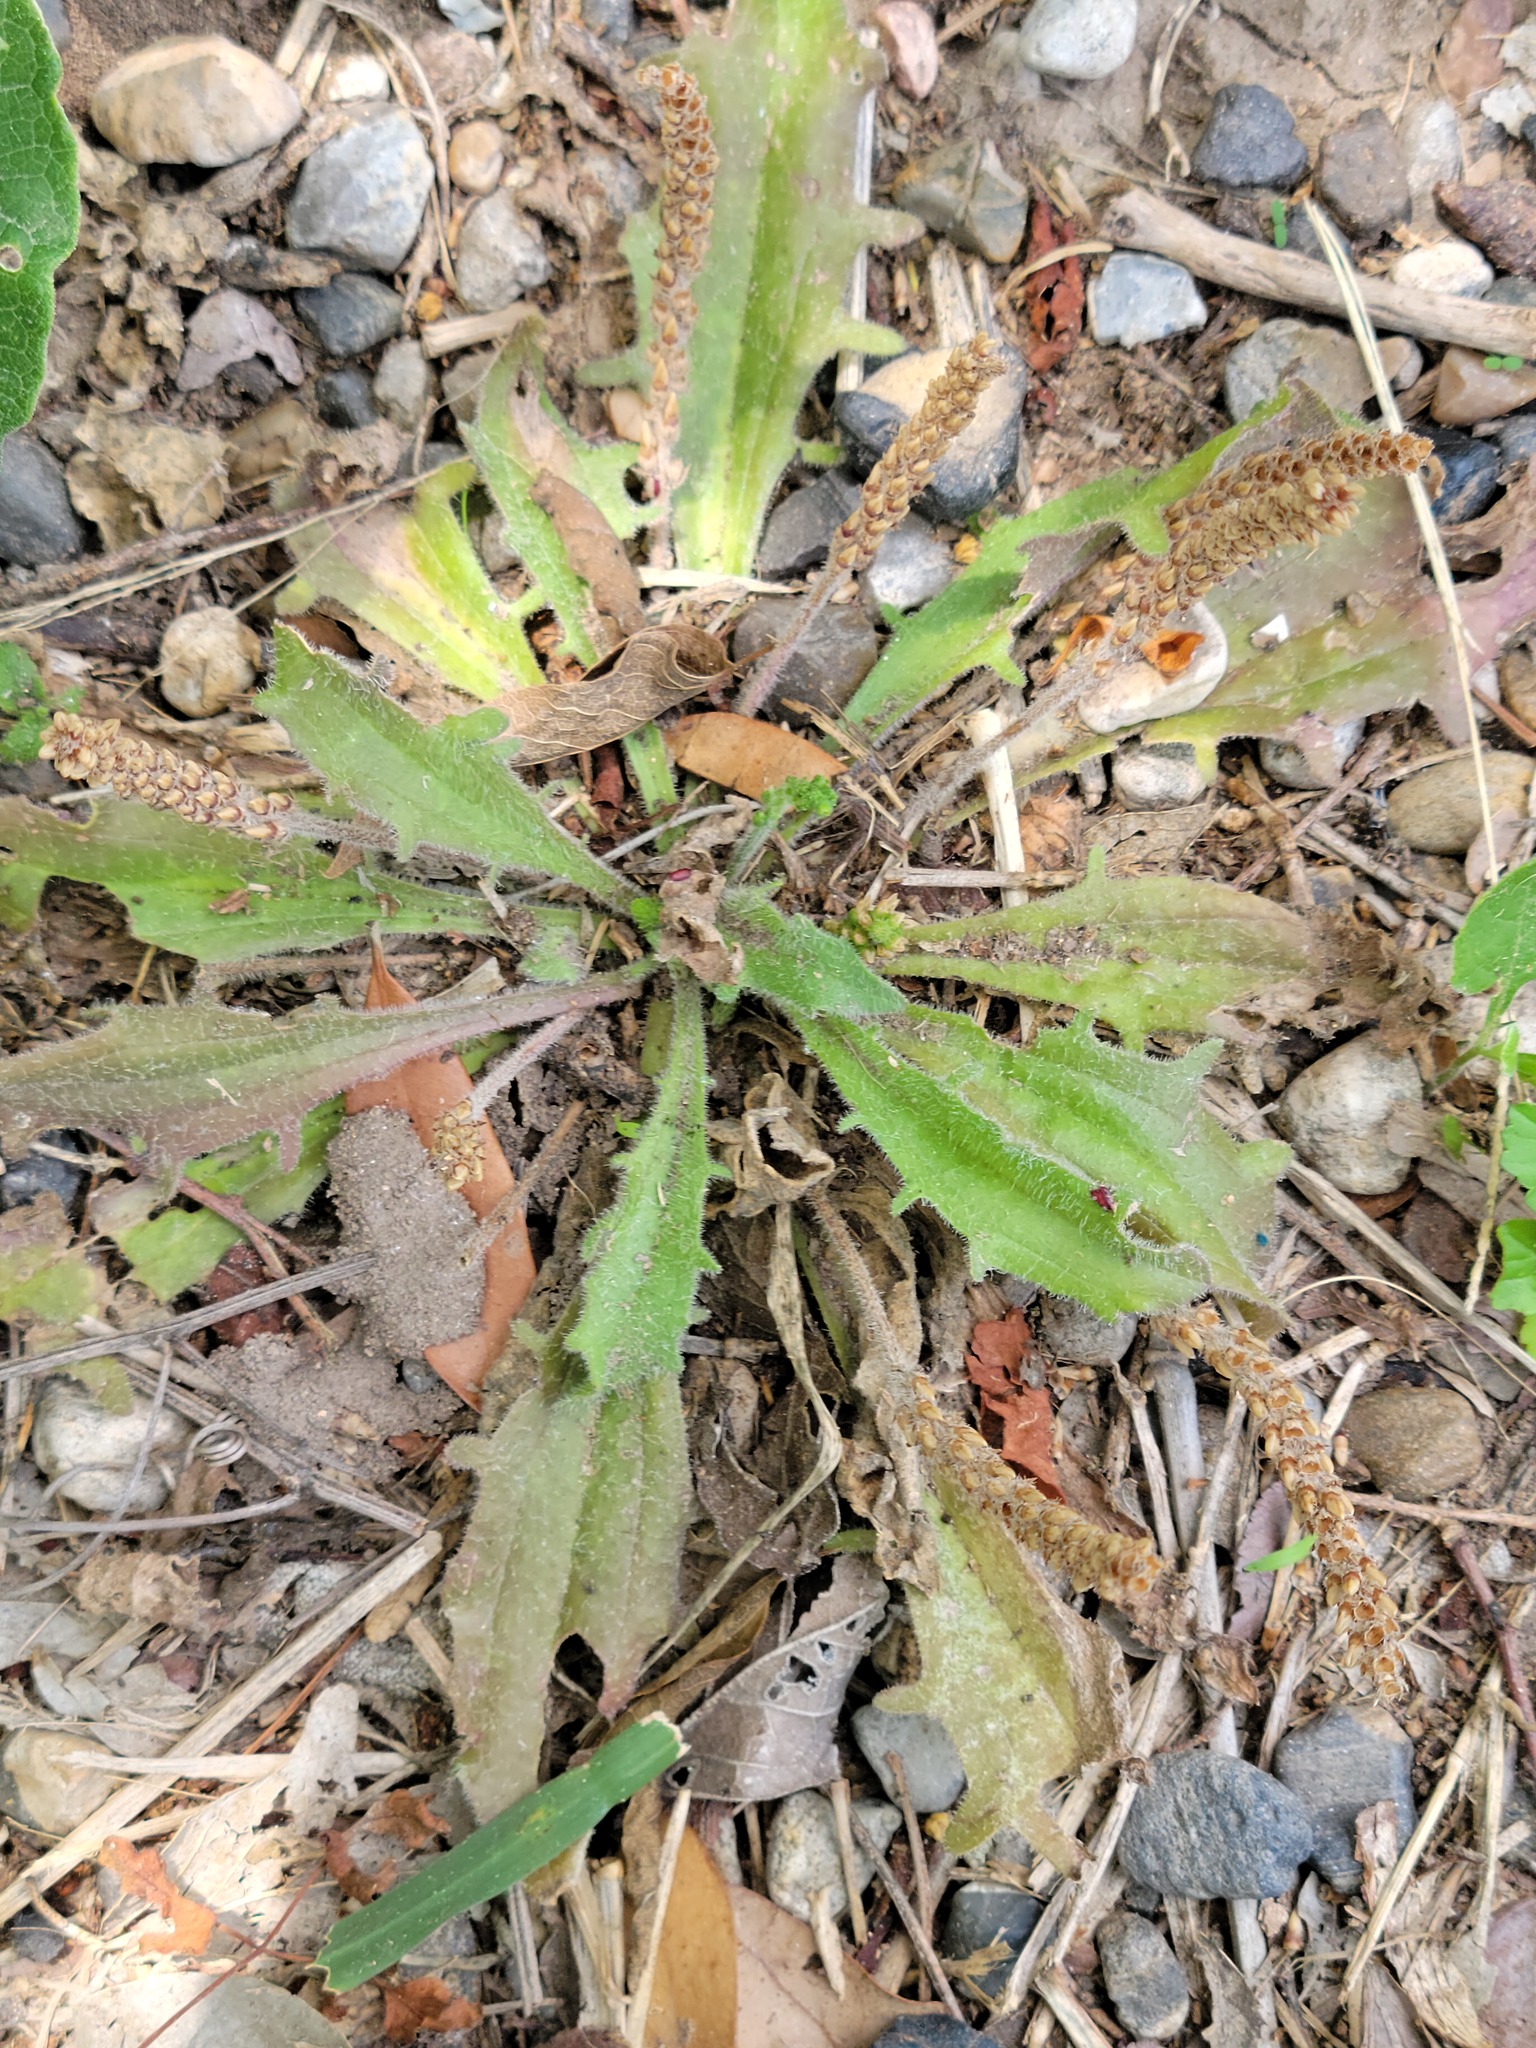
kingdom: Plantae
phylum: Tracheophyta
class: Magnoliopsida
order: Lamiales
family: Plantaginaceae
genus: Plantago
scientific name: Plantago rhodosperma
